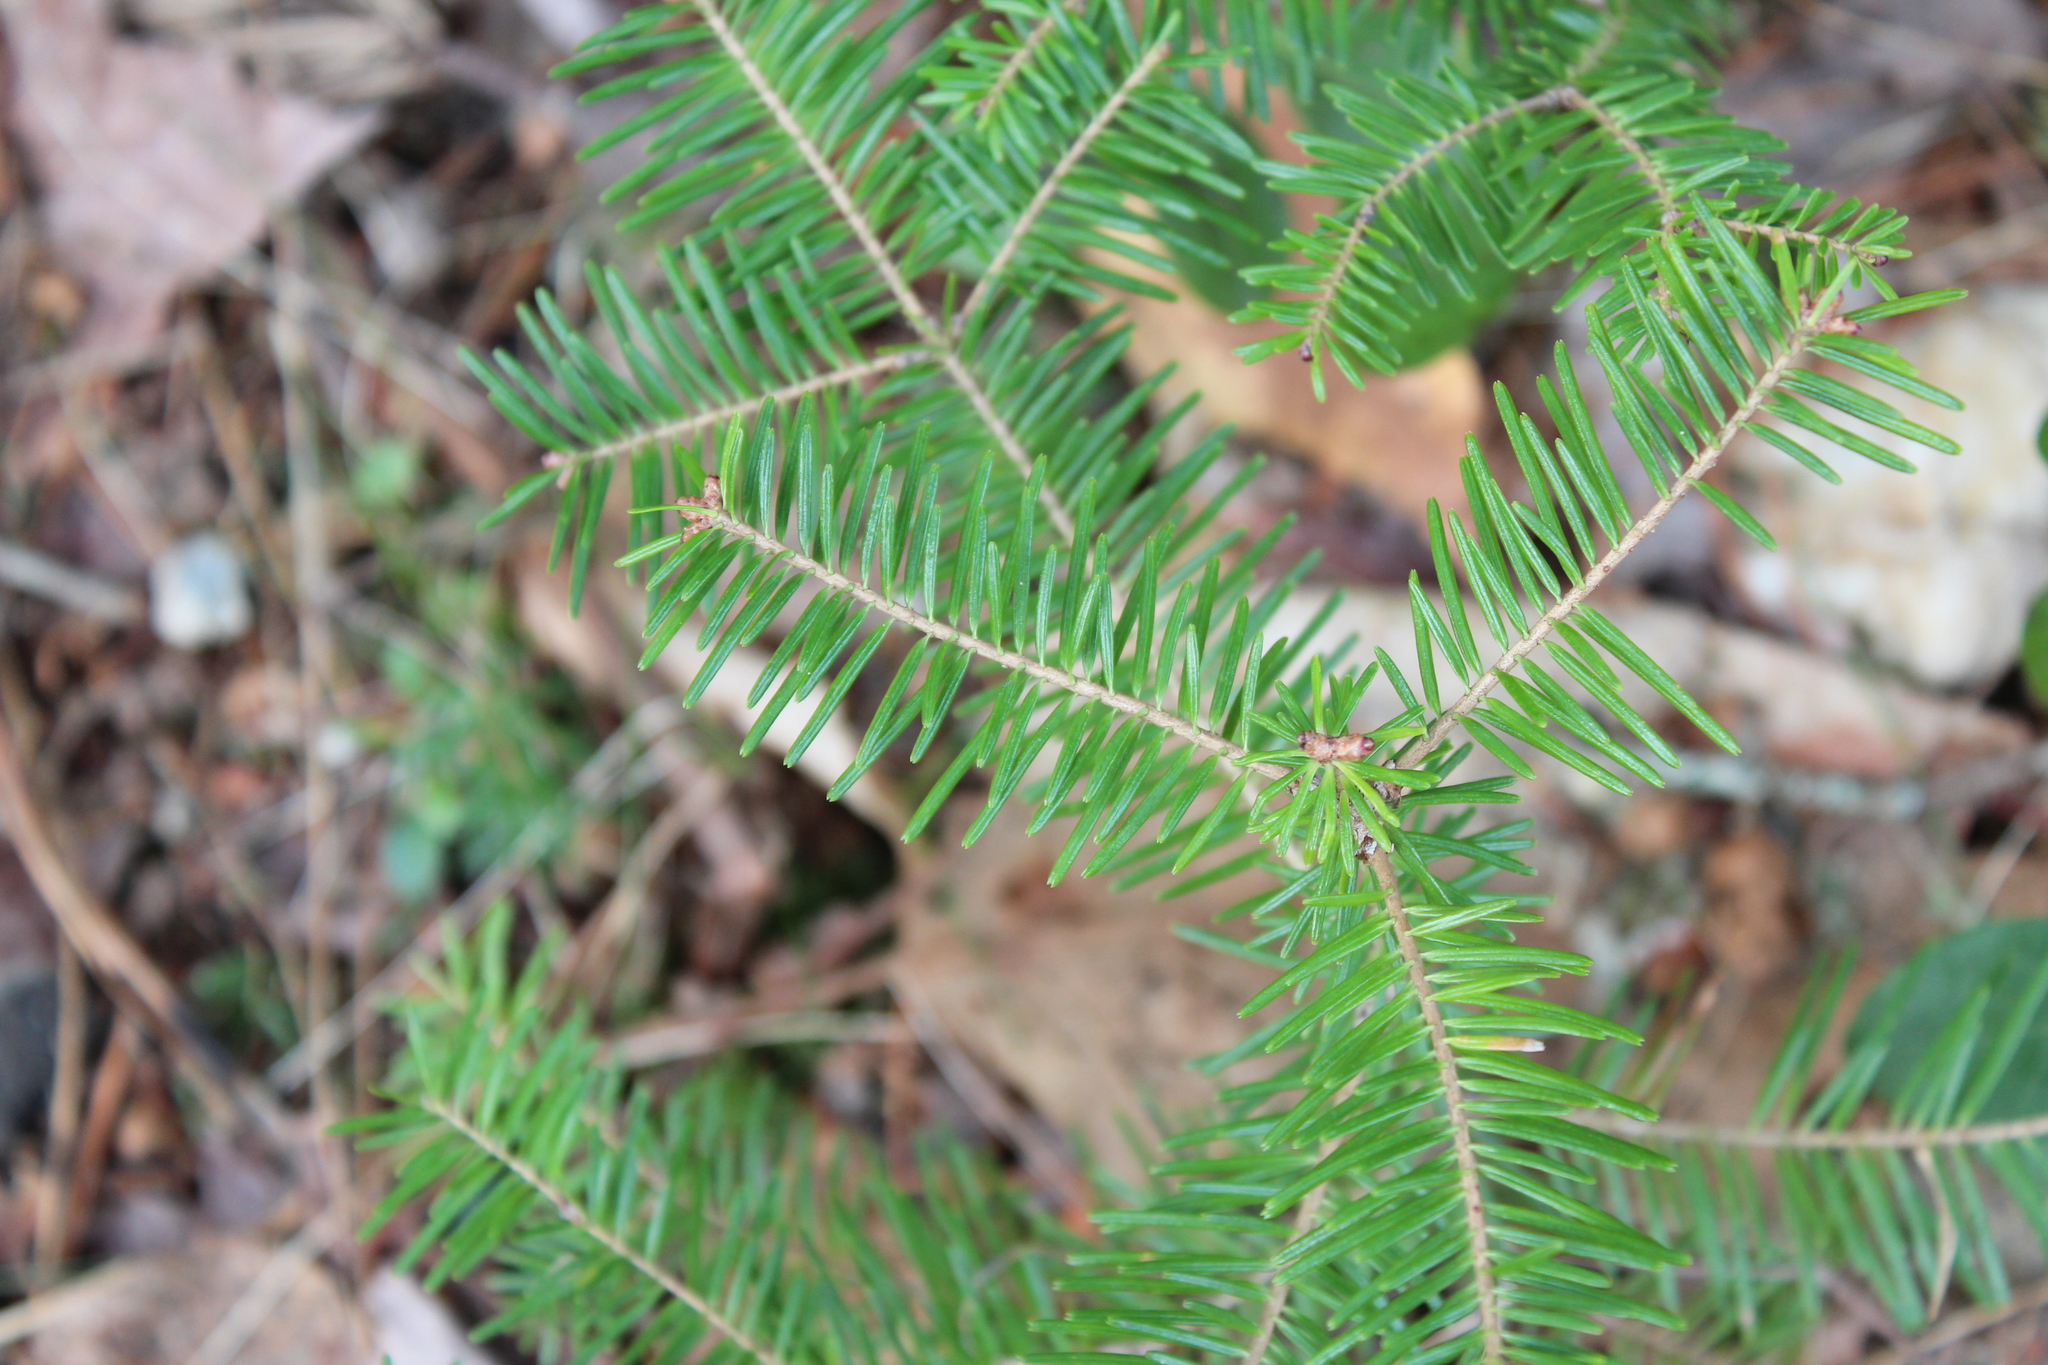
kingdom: Plantae
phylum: Tracheophyta
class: Pinopsida
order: Pinales
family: Pinaceae
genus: Abies
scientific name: Abies balsamea
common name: Balsam fir
